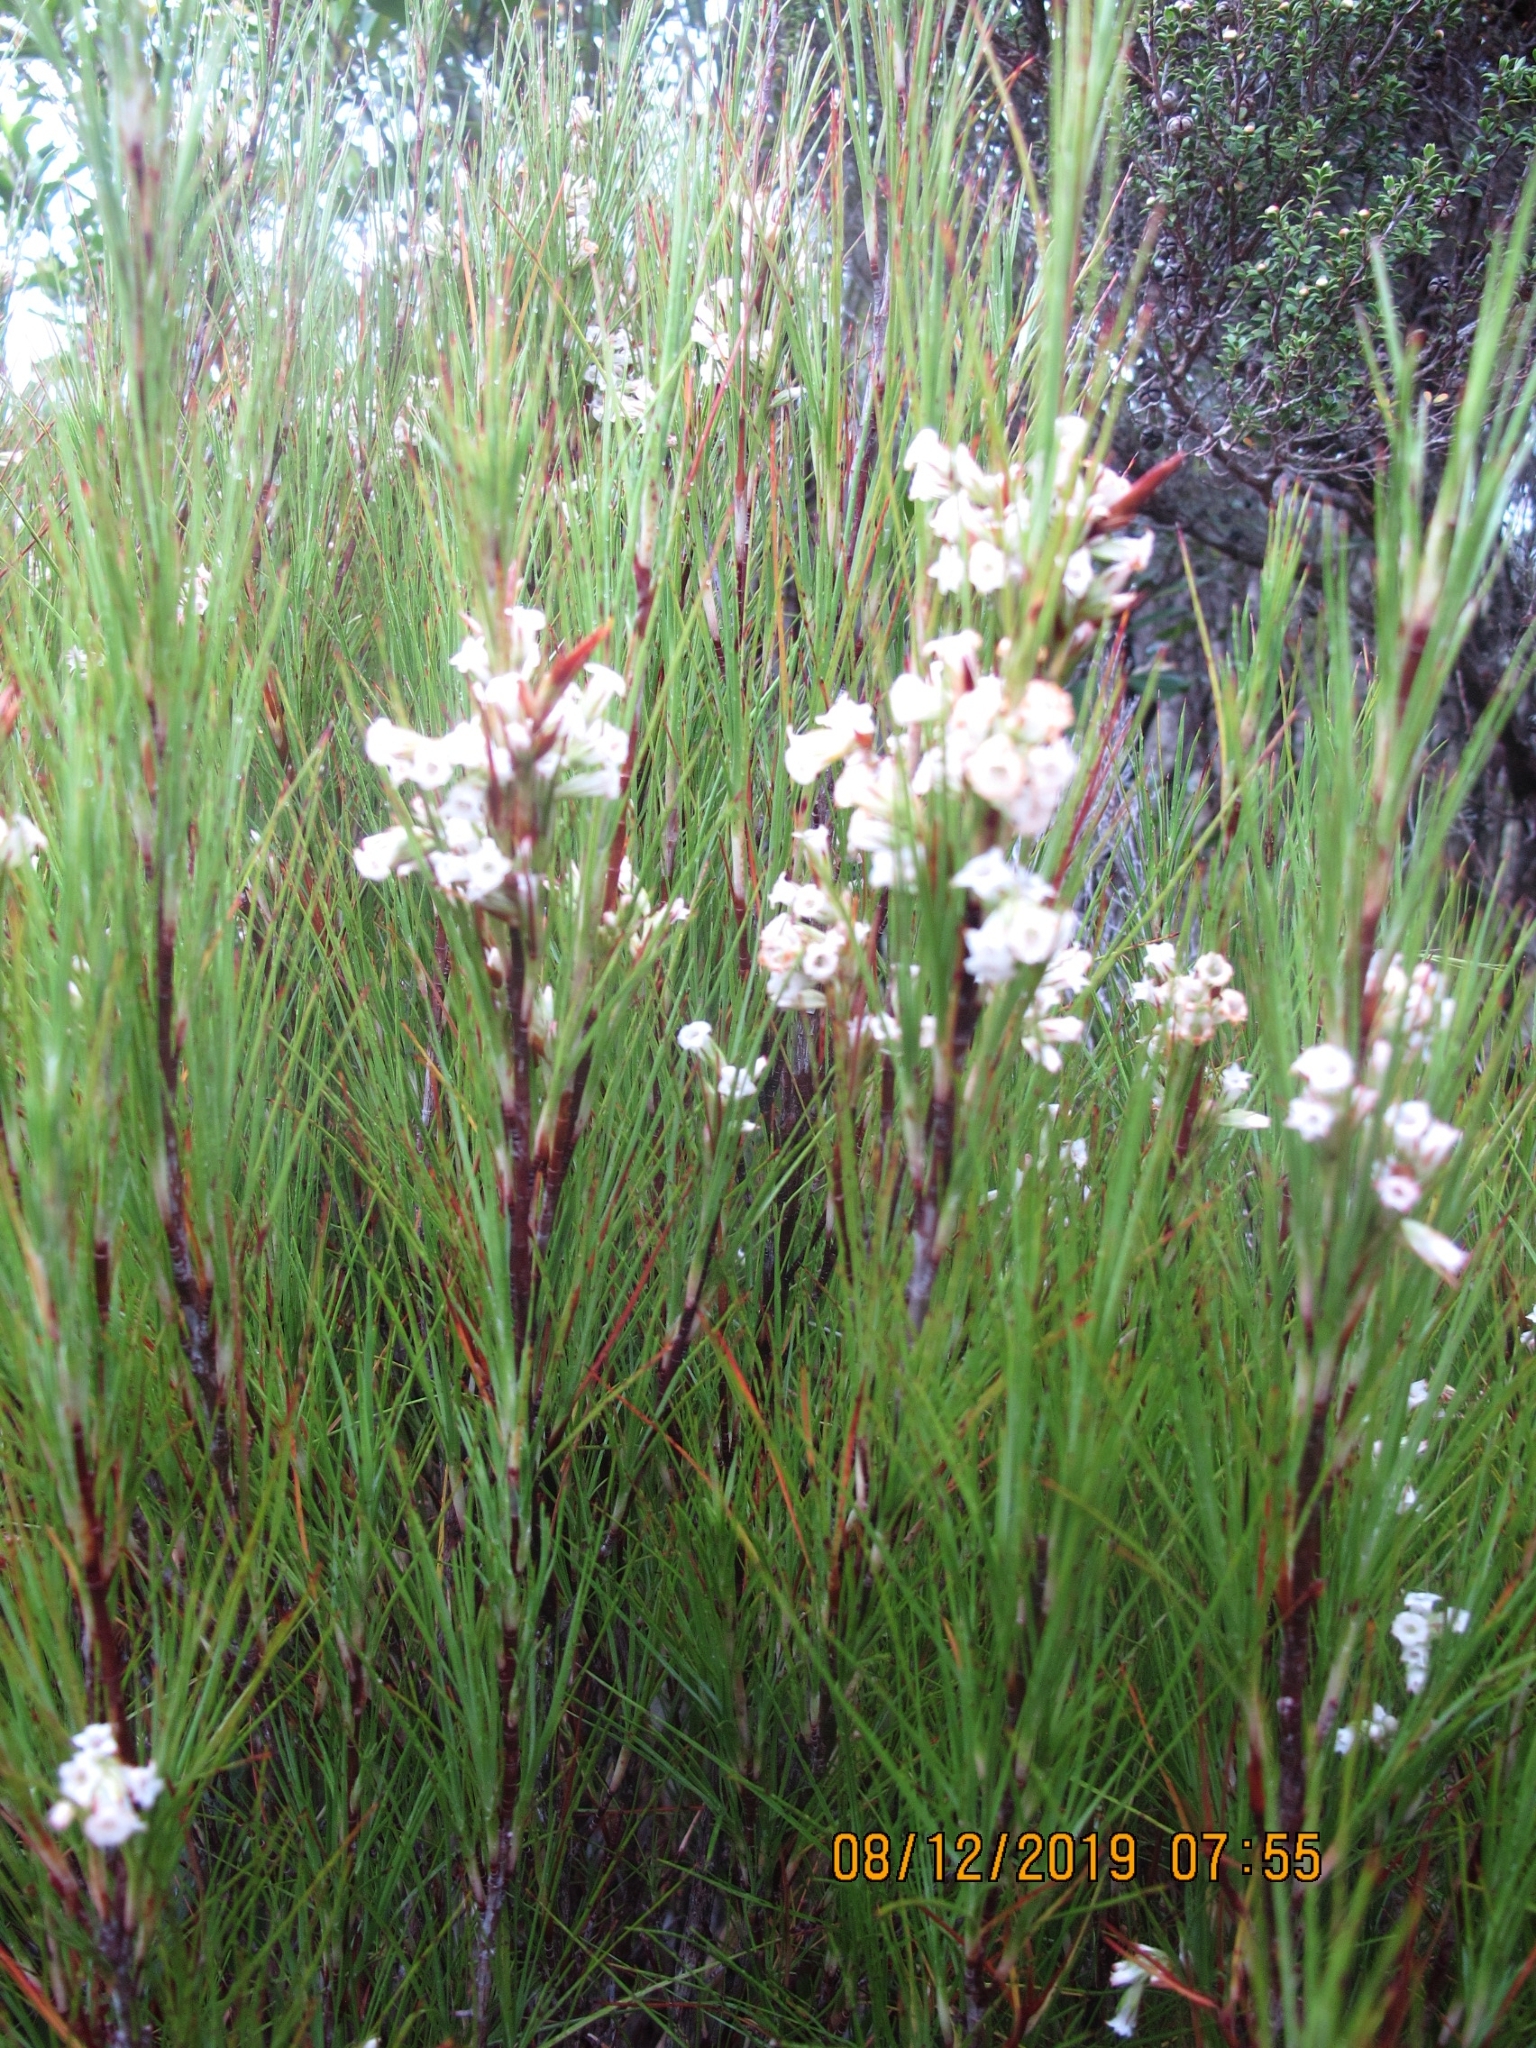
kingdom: Plantae
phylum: Tracheophyta
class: Magnoliopsida
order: Ericales
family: Ericaceae
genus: Dracophyllum
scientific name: Dracophyllum filifolium
